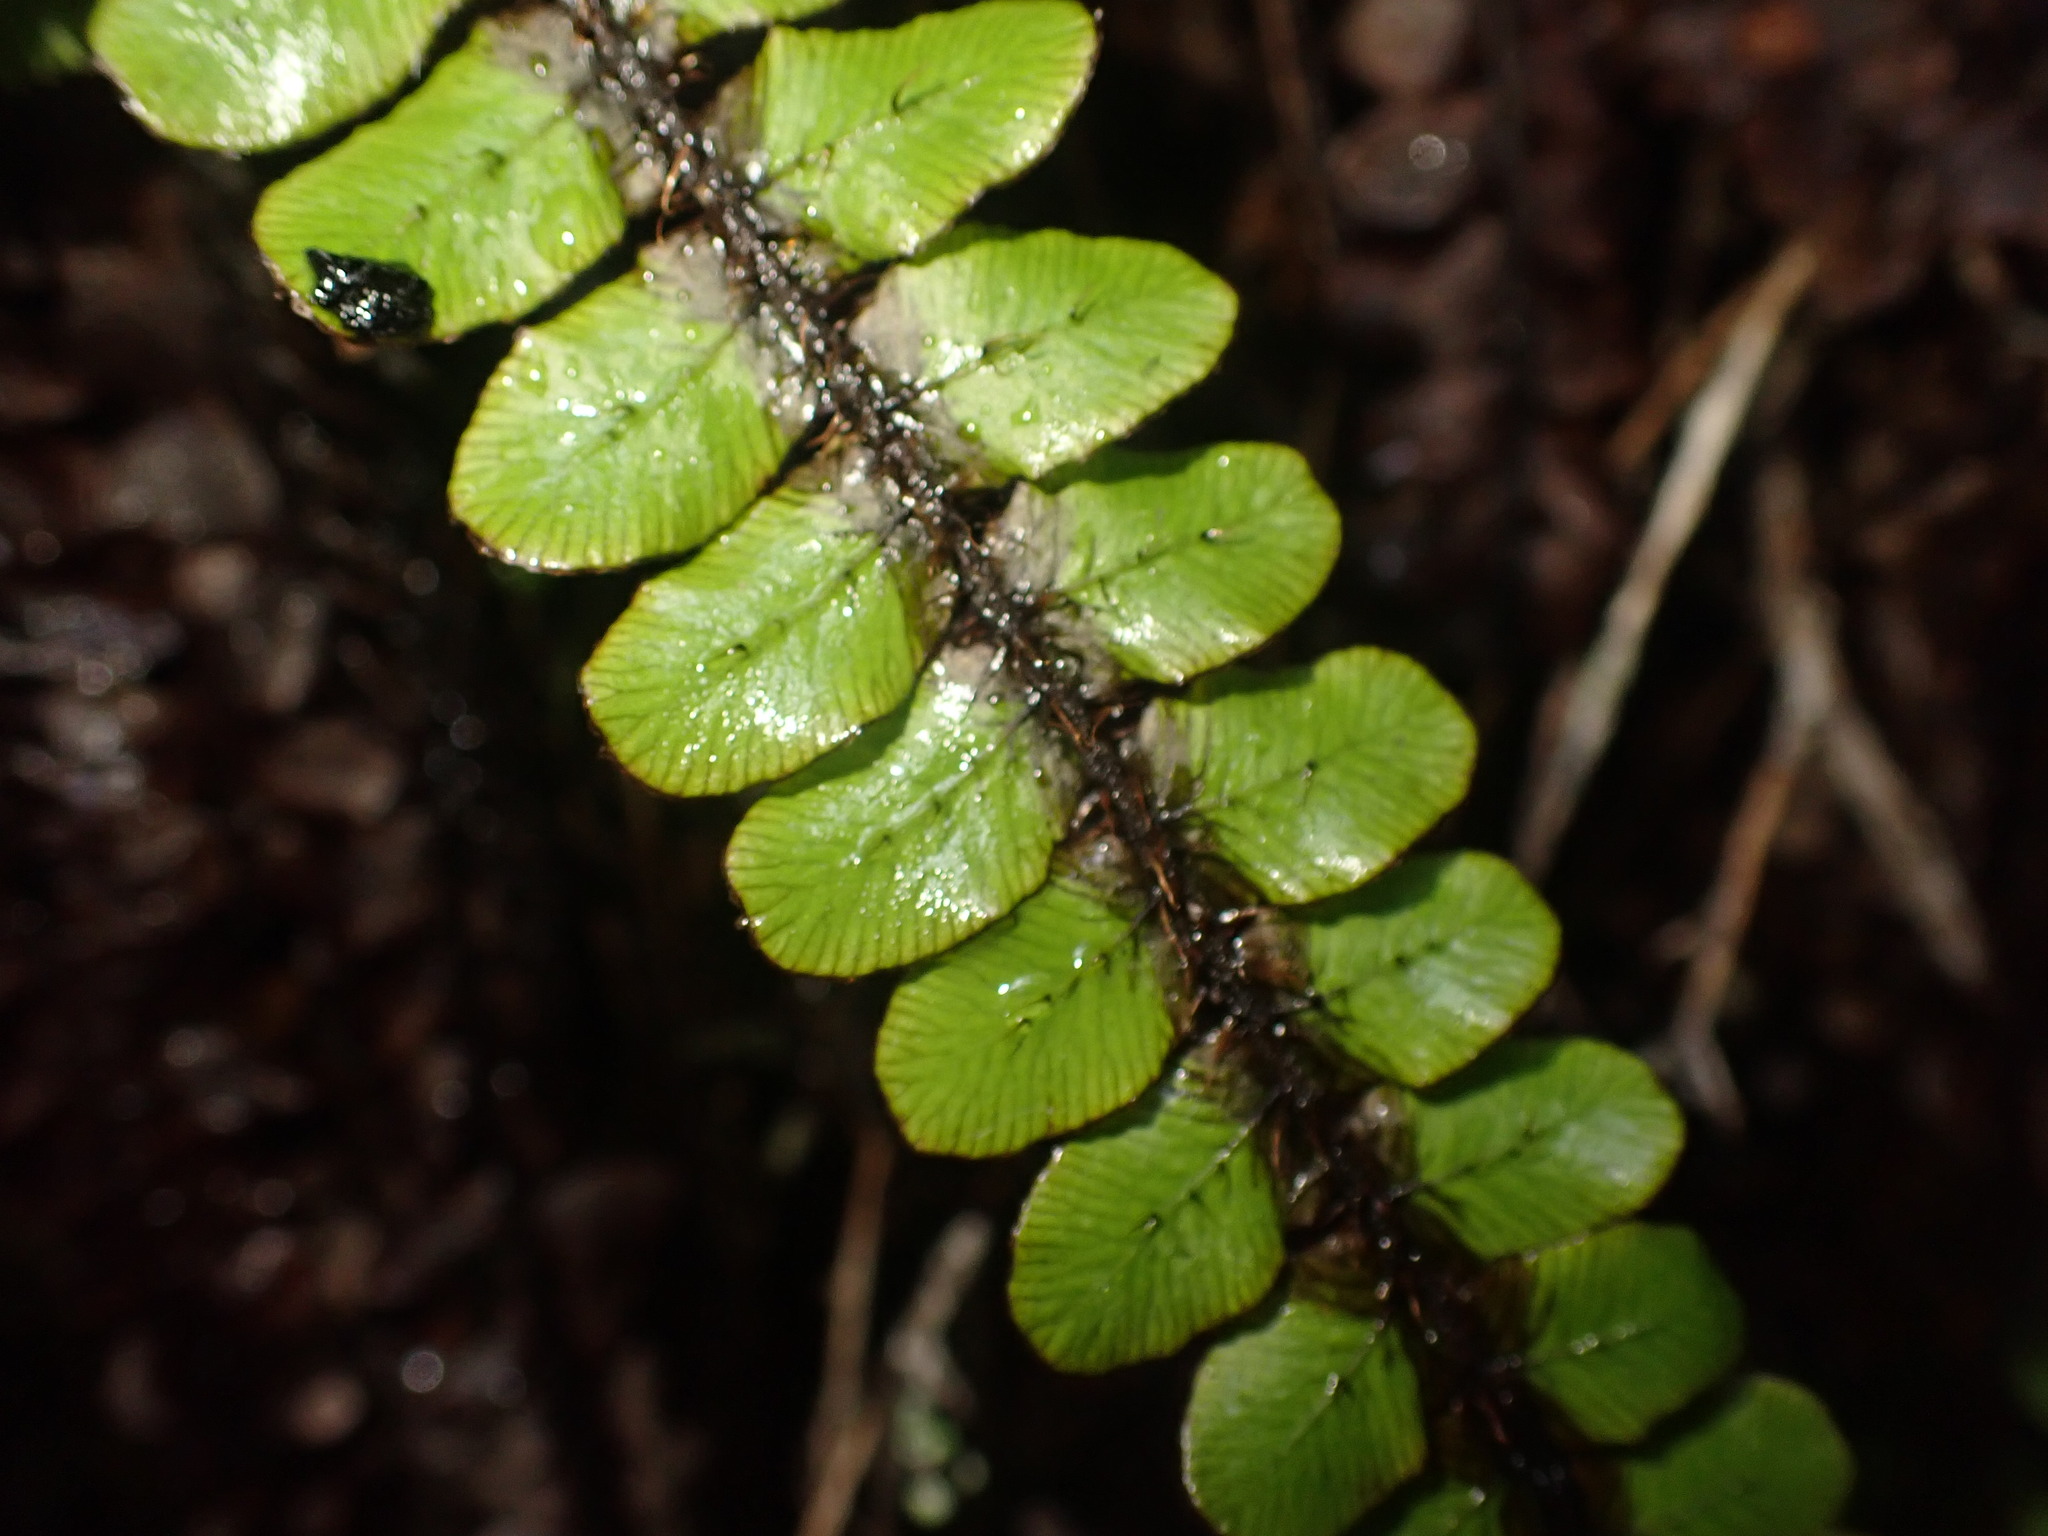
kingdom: Plantae
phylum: Tracheophyta
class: Polypodiopsida
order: Polypodiales
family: Blechnaceae
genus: Cranfillia
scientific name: Cranfillia fluviatilis
